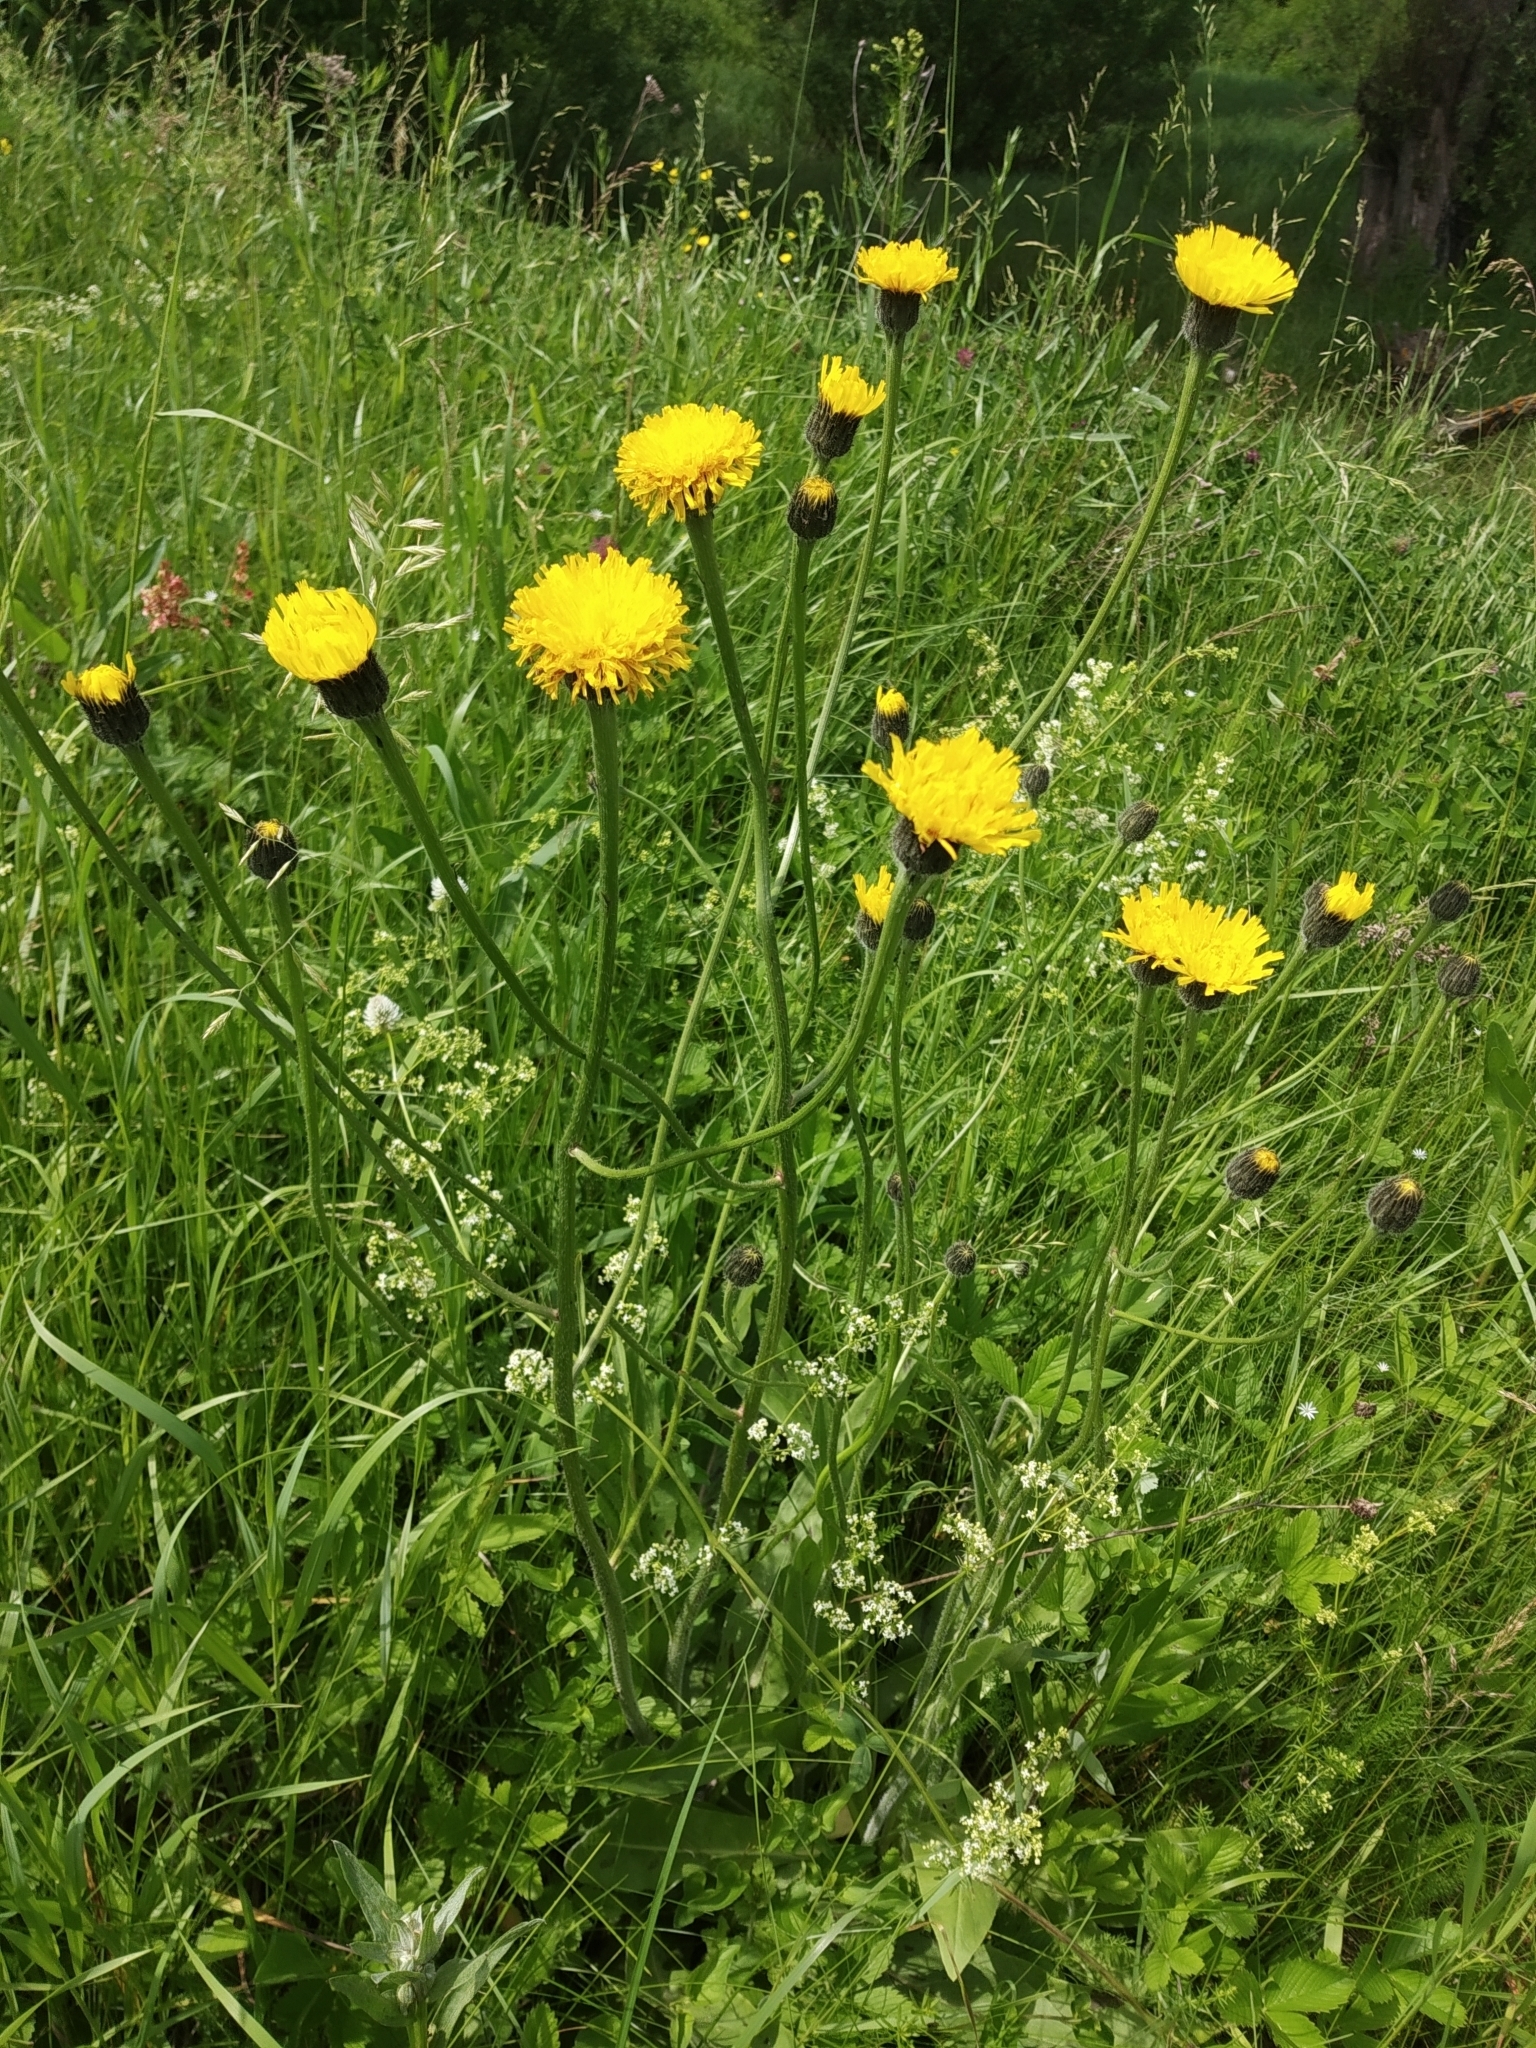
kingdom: Plantae
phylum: Tracheophyta
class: Magnoliopsida
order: Asterales
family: Asteraceae
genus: Trommsdorffia
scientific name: Trommsdorffia maculata
